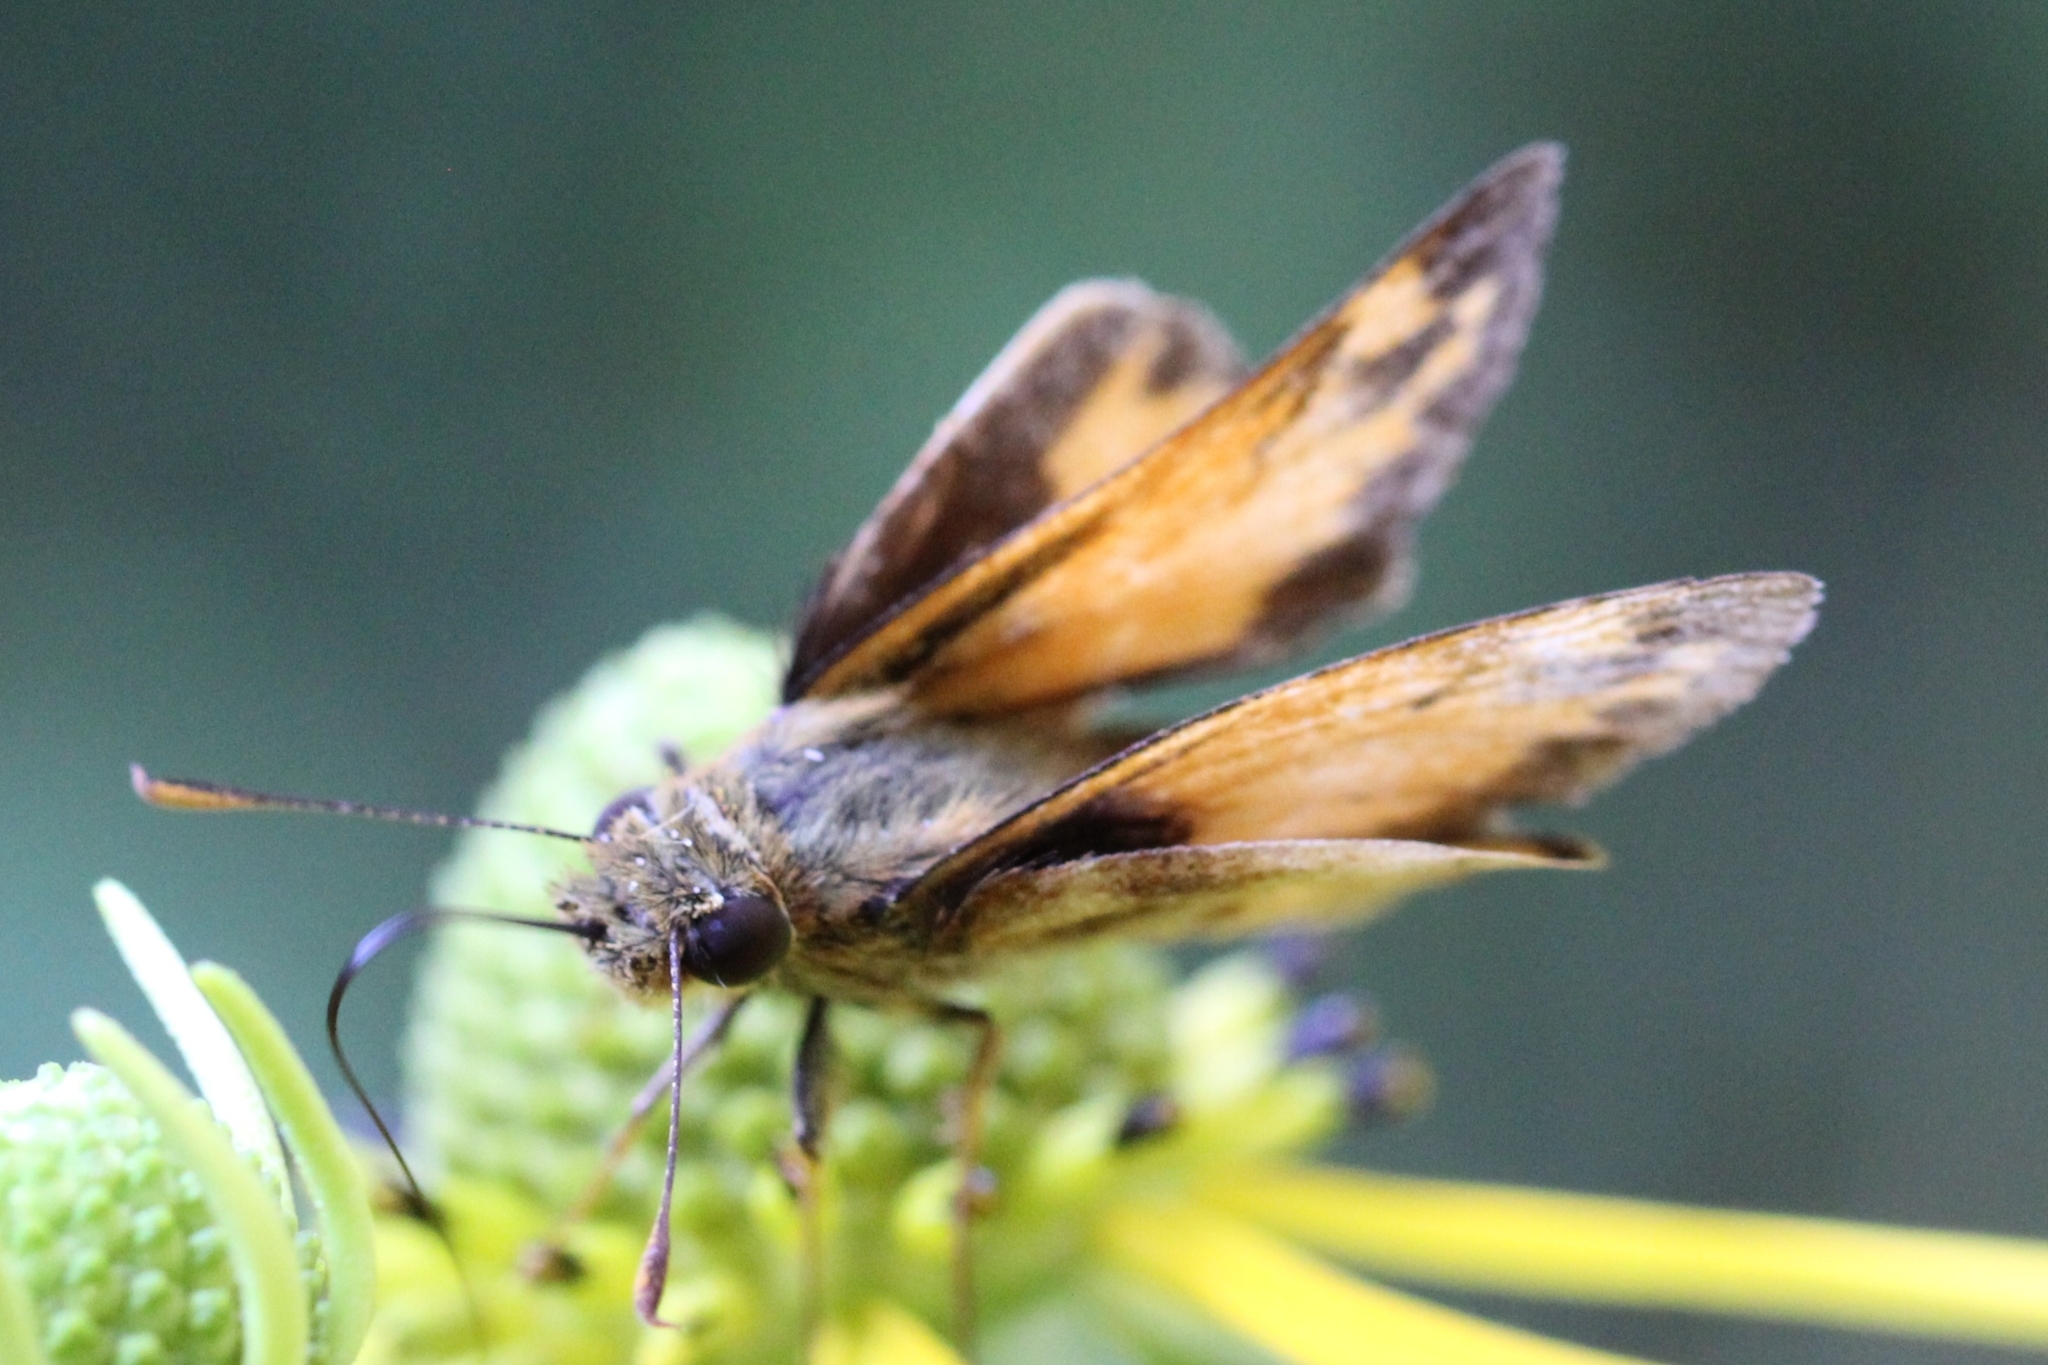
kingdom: Animalia
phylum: Arthropoda
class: Insecta
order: Lepidoptera
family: Hesperiidae
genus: Lon
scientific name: Lon zabulon
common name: Zabulon skipper
